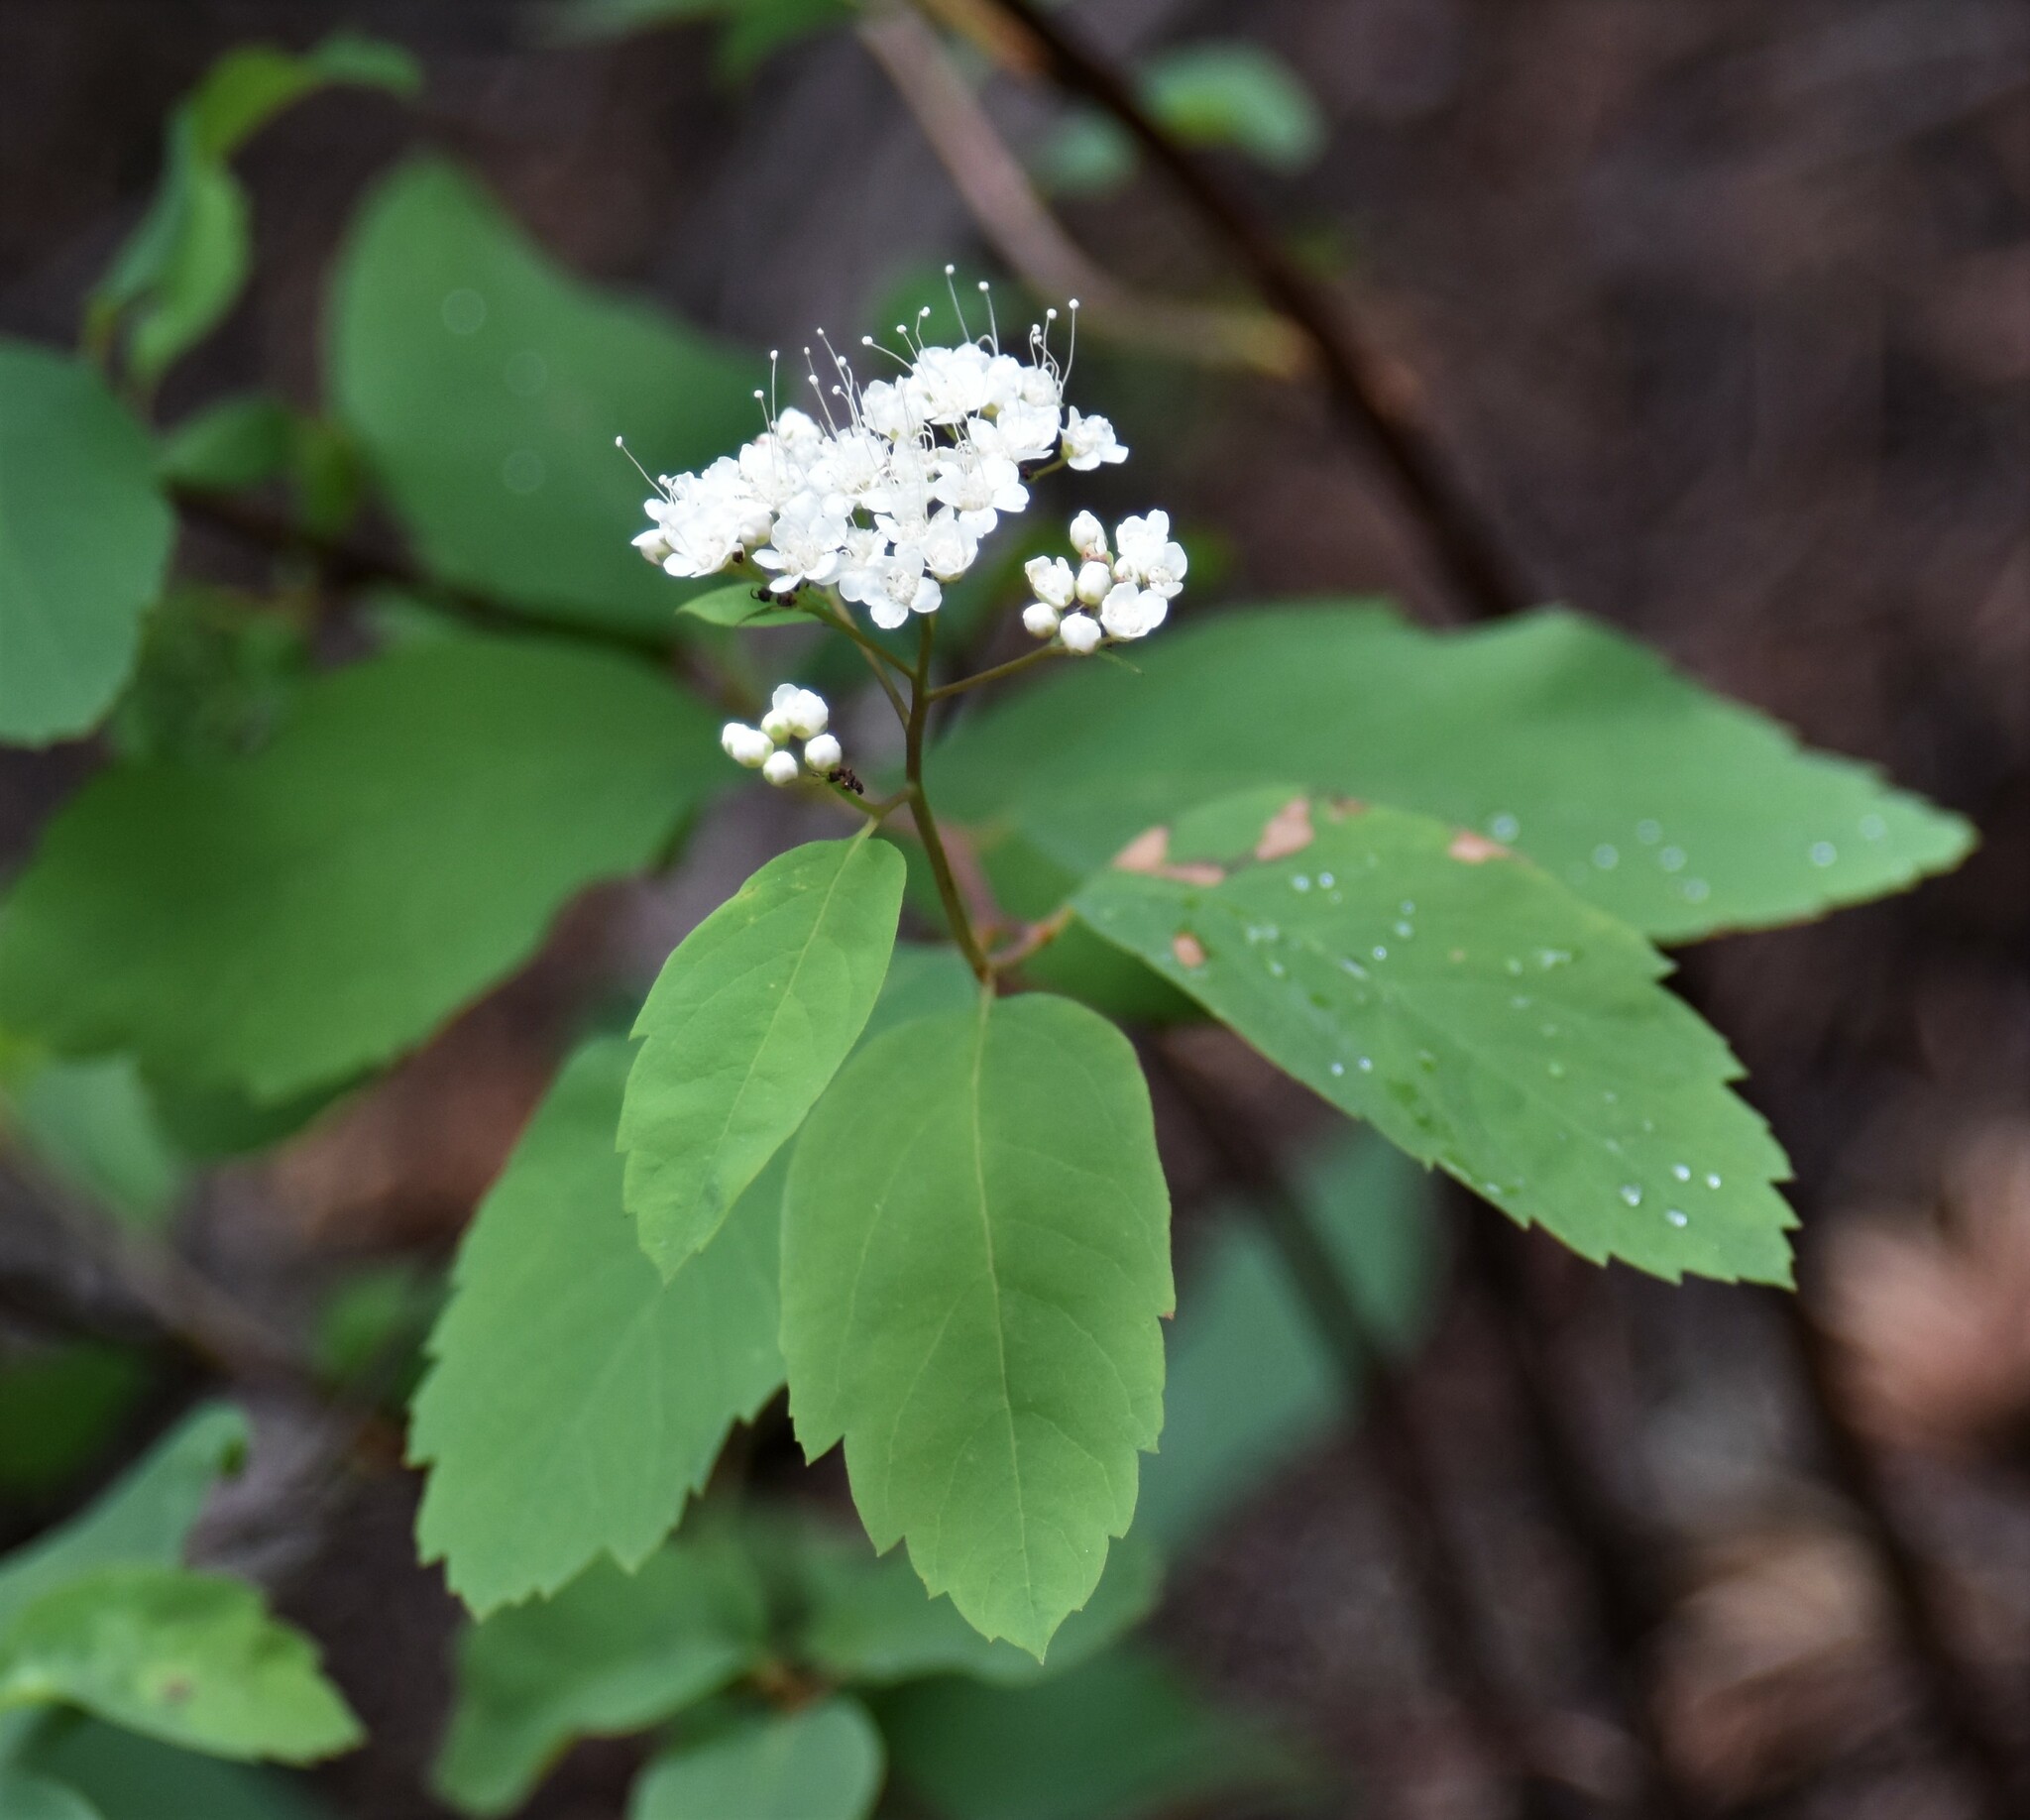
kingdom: Plantae
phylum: Tracheophyta
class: Magnoliopsida
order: Rosales
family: Rosaceae
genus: Spiraea
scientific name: Spiraea lucida
